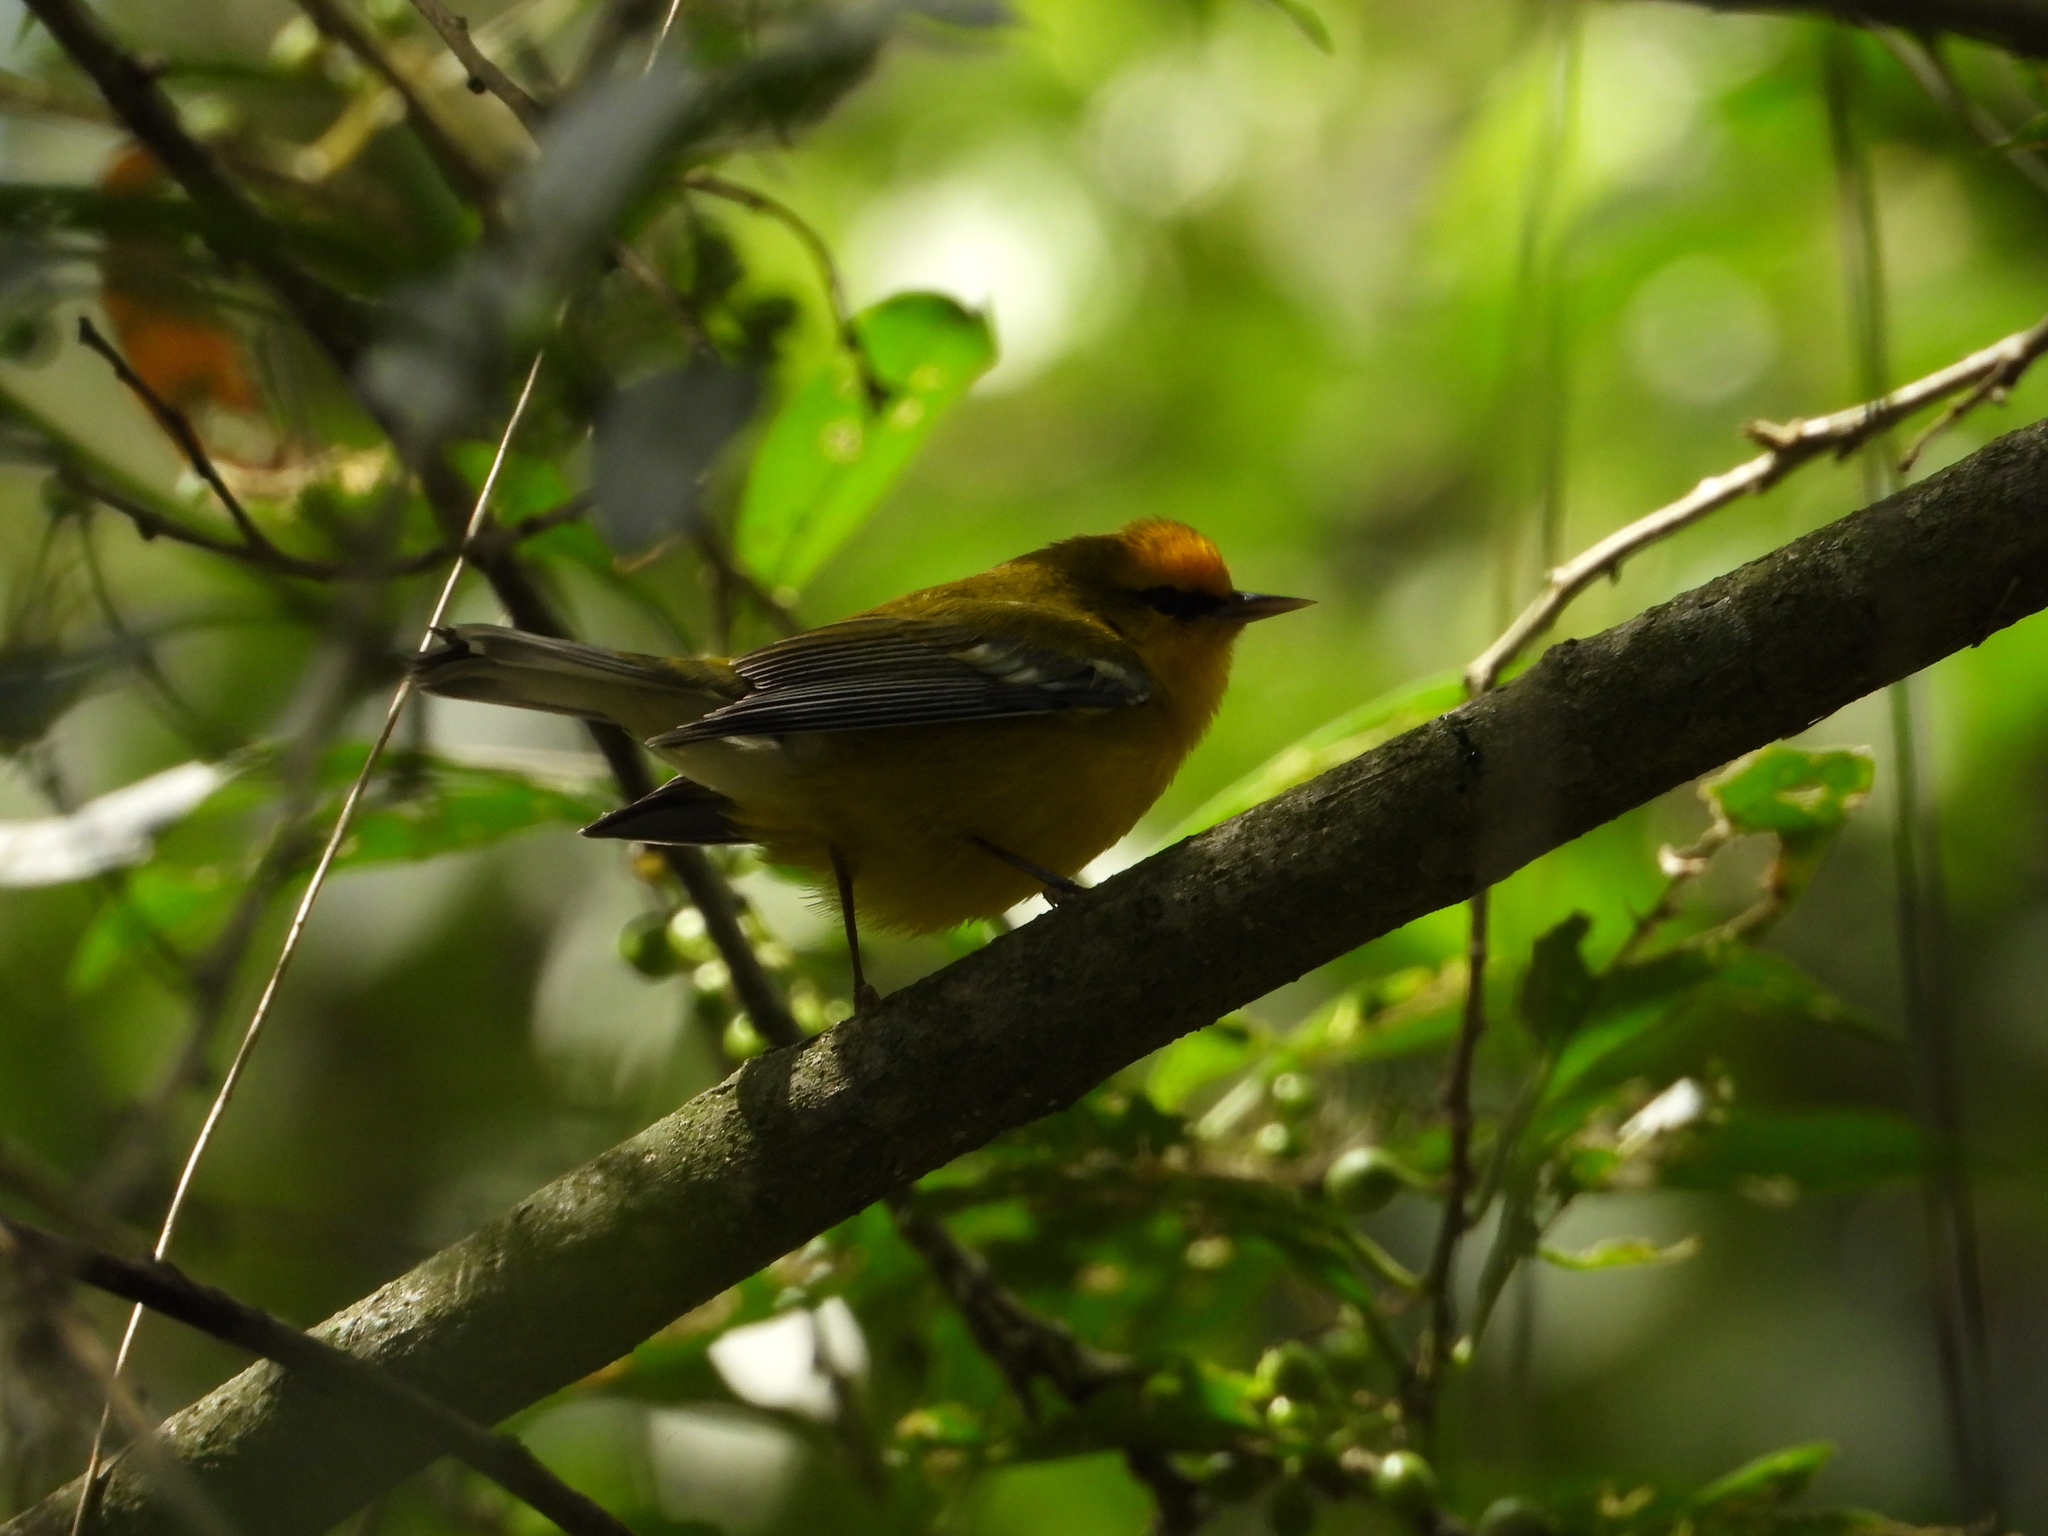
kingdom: Animalia
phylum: Chordata
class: Aves
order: Passeriformes
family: Parulidae
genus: Vermivora
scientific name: Vermivora cyanoptera
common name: Blue-winged warbler
